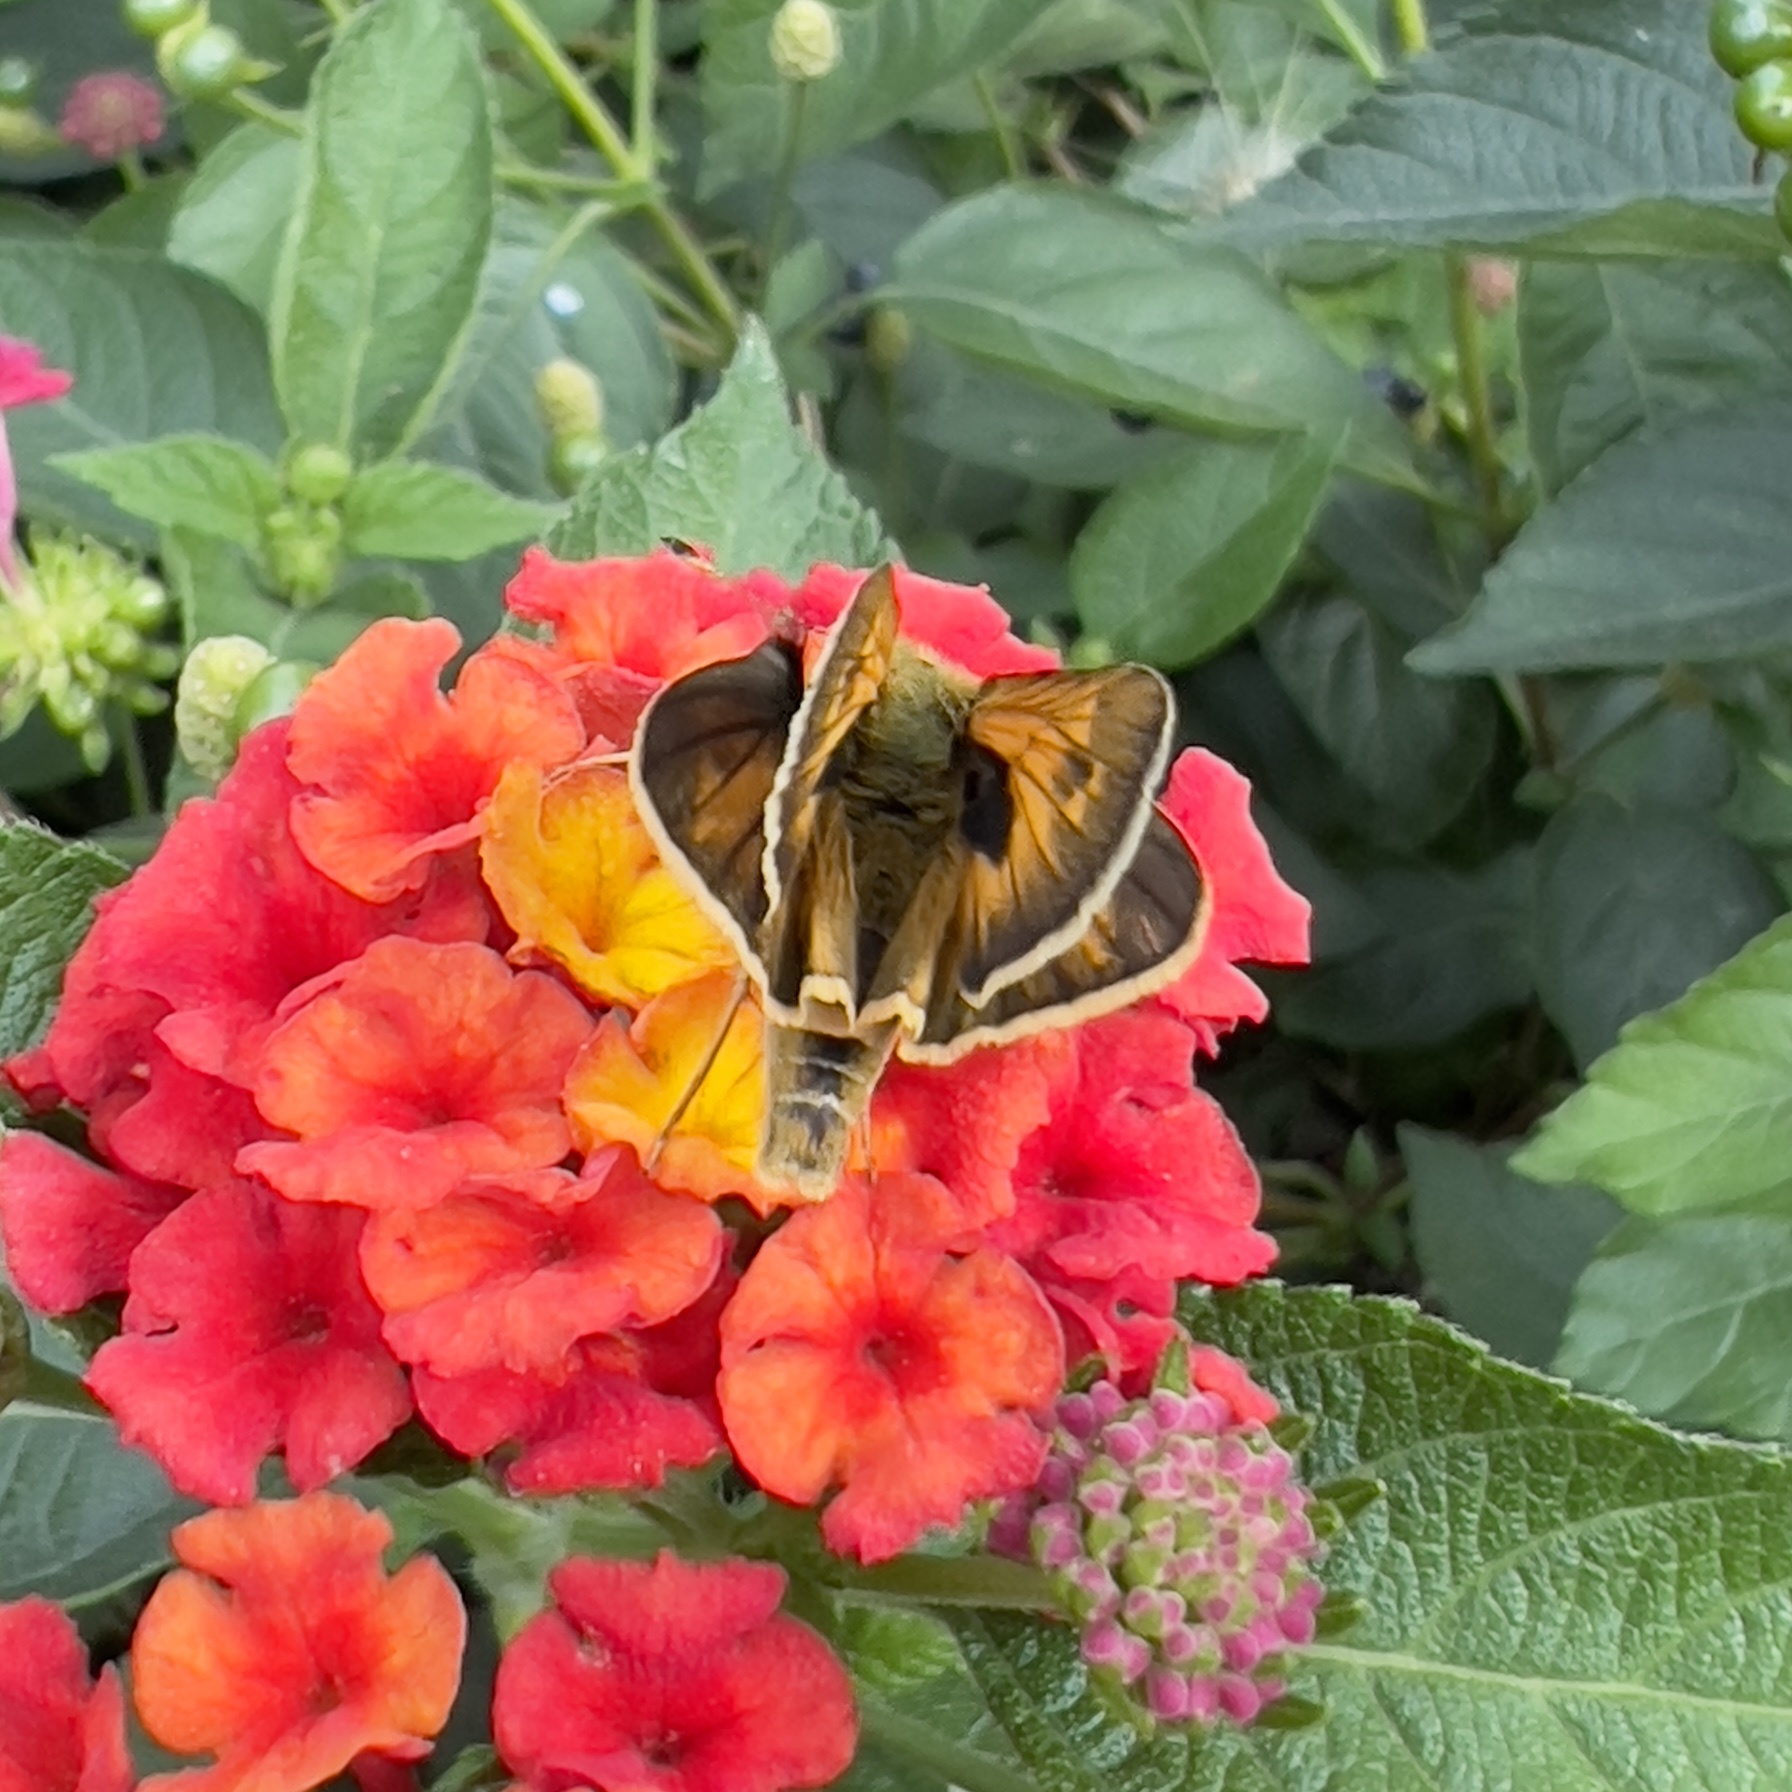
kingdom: Animalia
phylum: Arthropoda
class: Insecta
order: Lepidoptera
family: Hesperiidae
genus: Atalopedes
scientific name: Atalopedes
